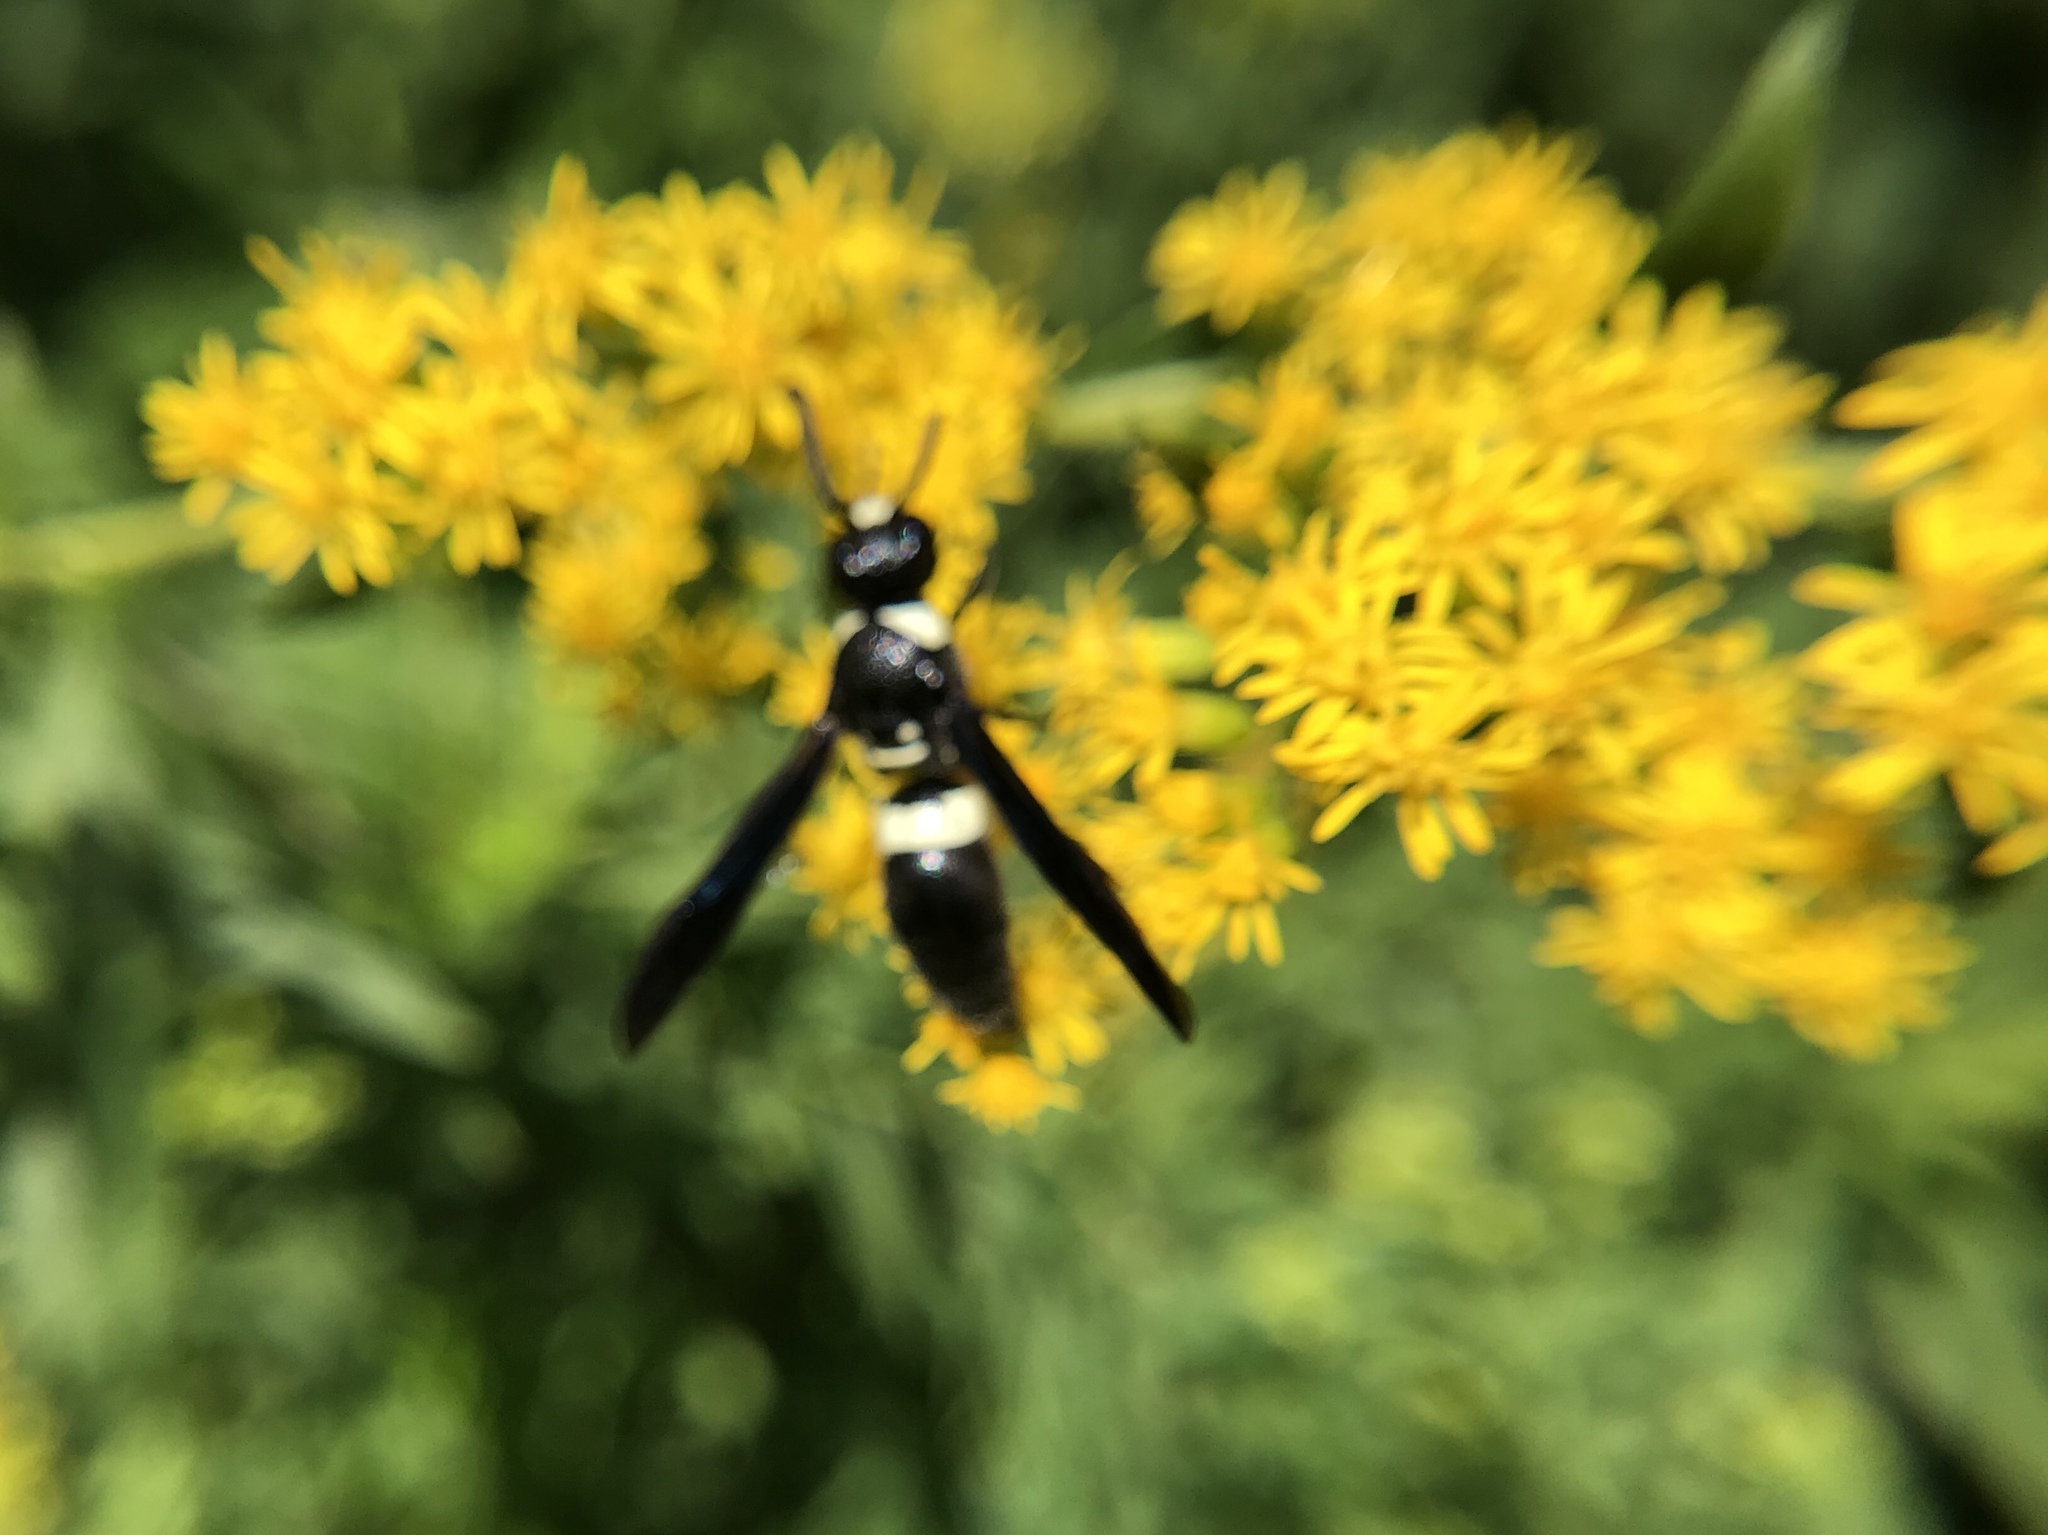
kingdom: Animalia
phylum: Arthropoda
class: Insecta
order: Hymenoptera
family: Eumenidae
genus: Monobia
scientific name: Monobia quadridens
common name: Four-toothed mason wasp
